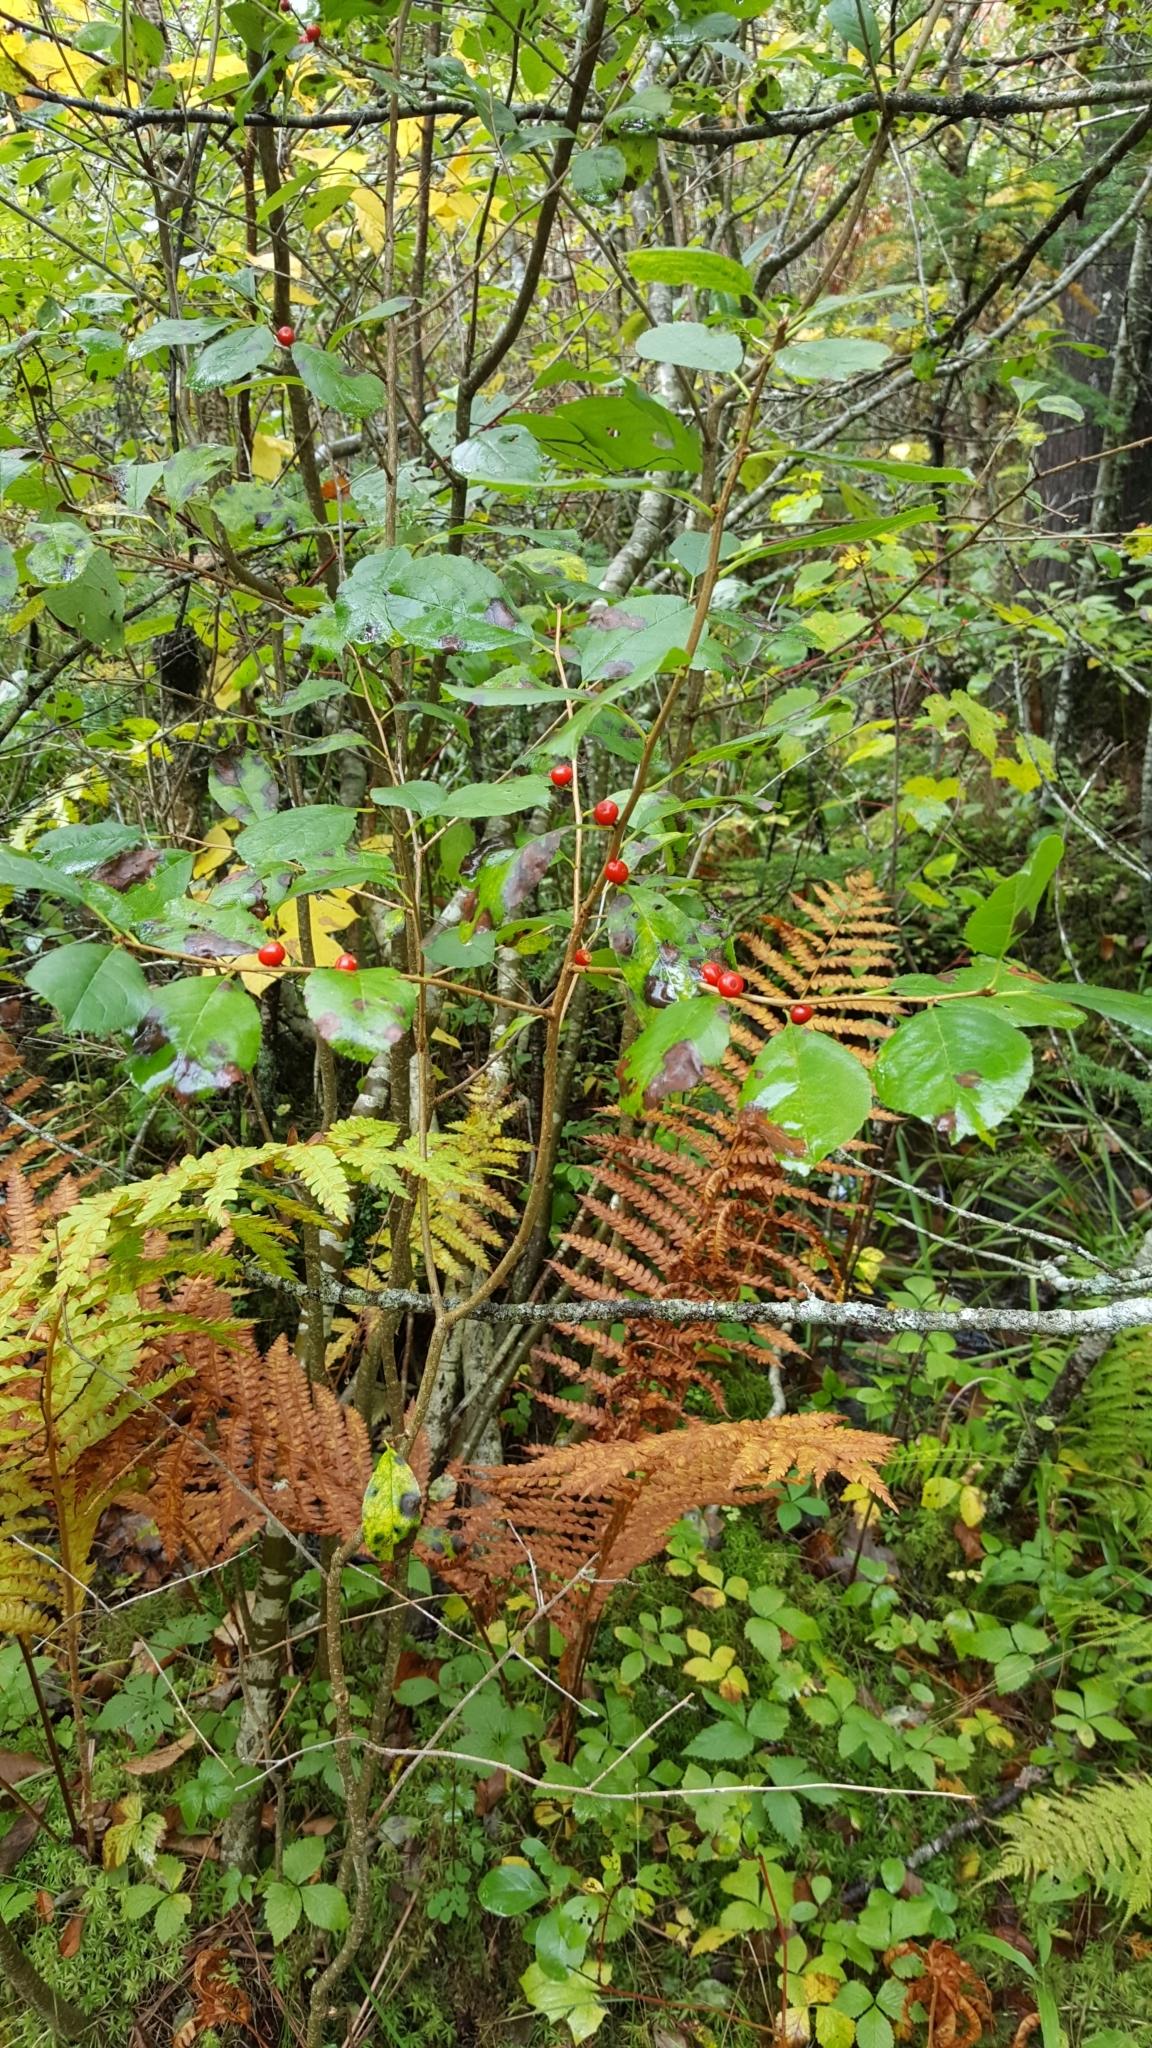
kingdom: Plantae
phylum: Tracheophyta
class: Magnoliopsida
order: Aquifoliales
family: Aquifoliaceae
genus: Ilex
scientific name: Ilex verticillata
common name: Virginia winterberry
